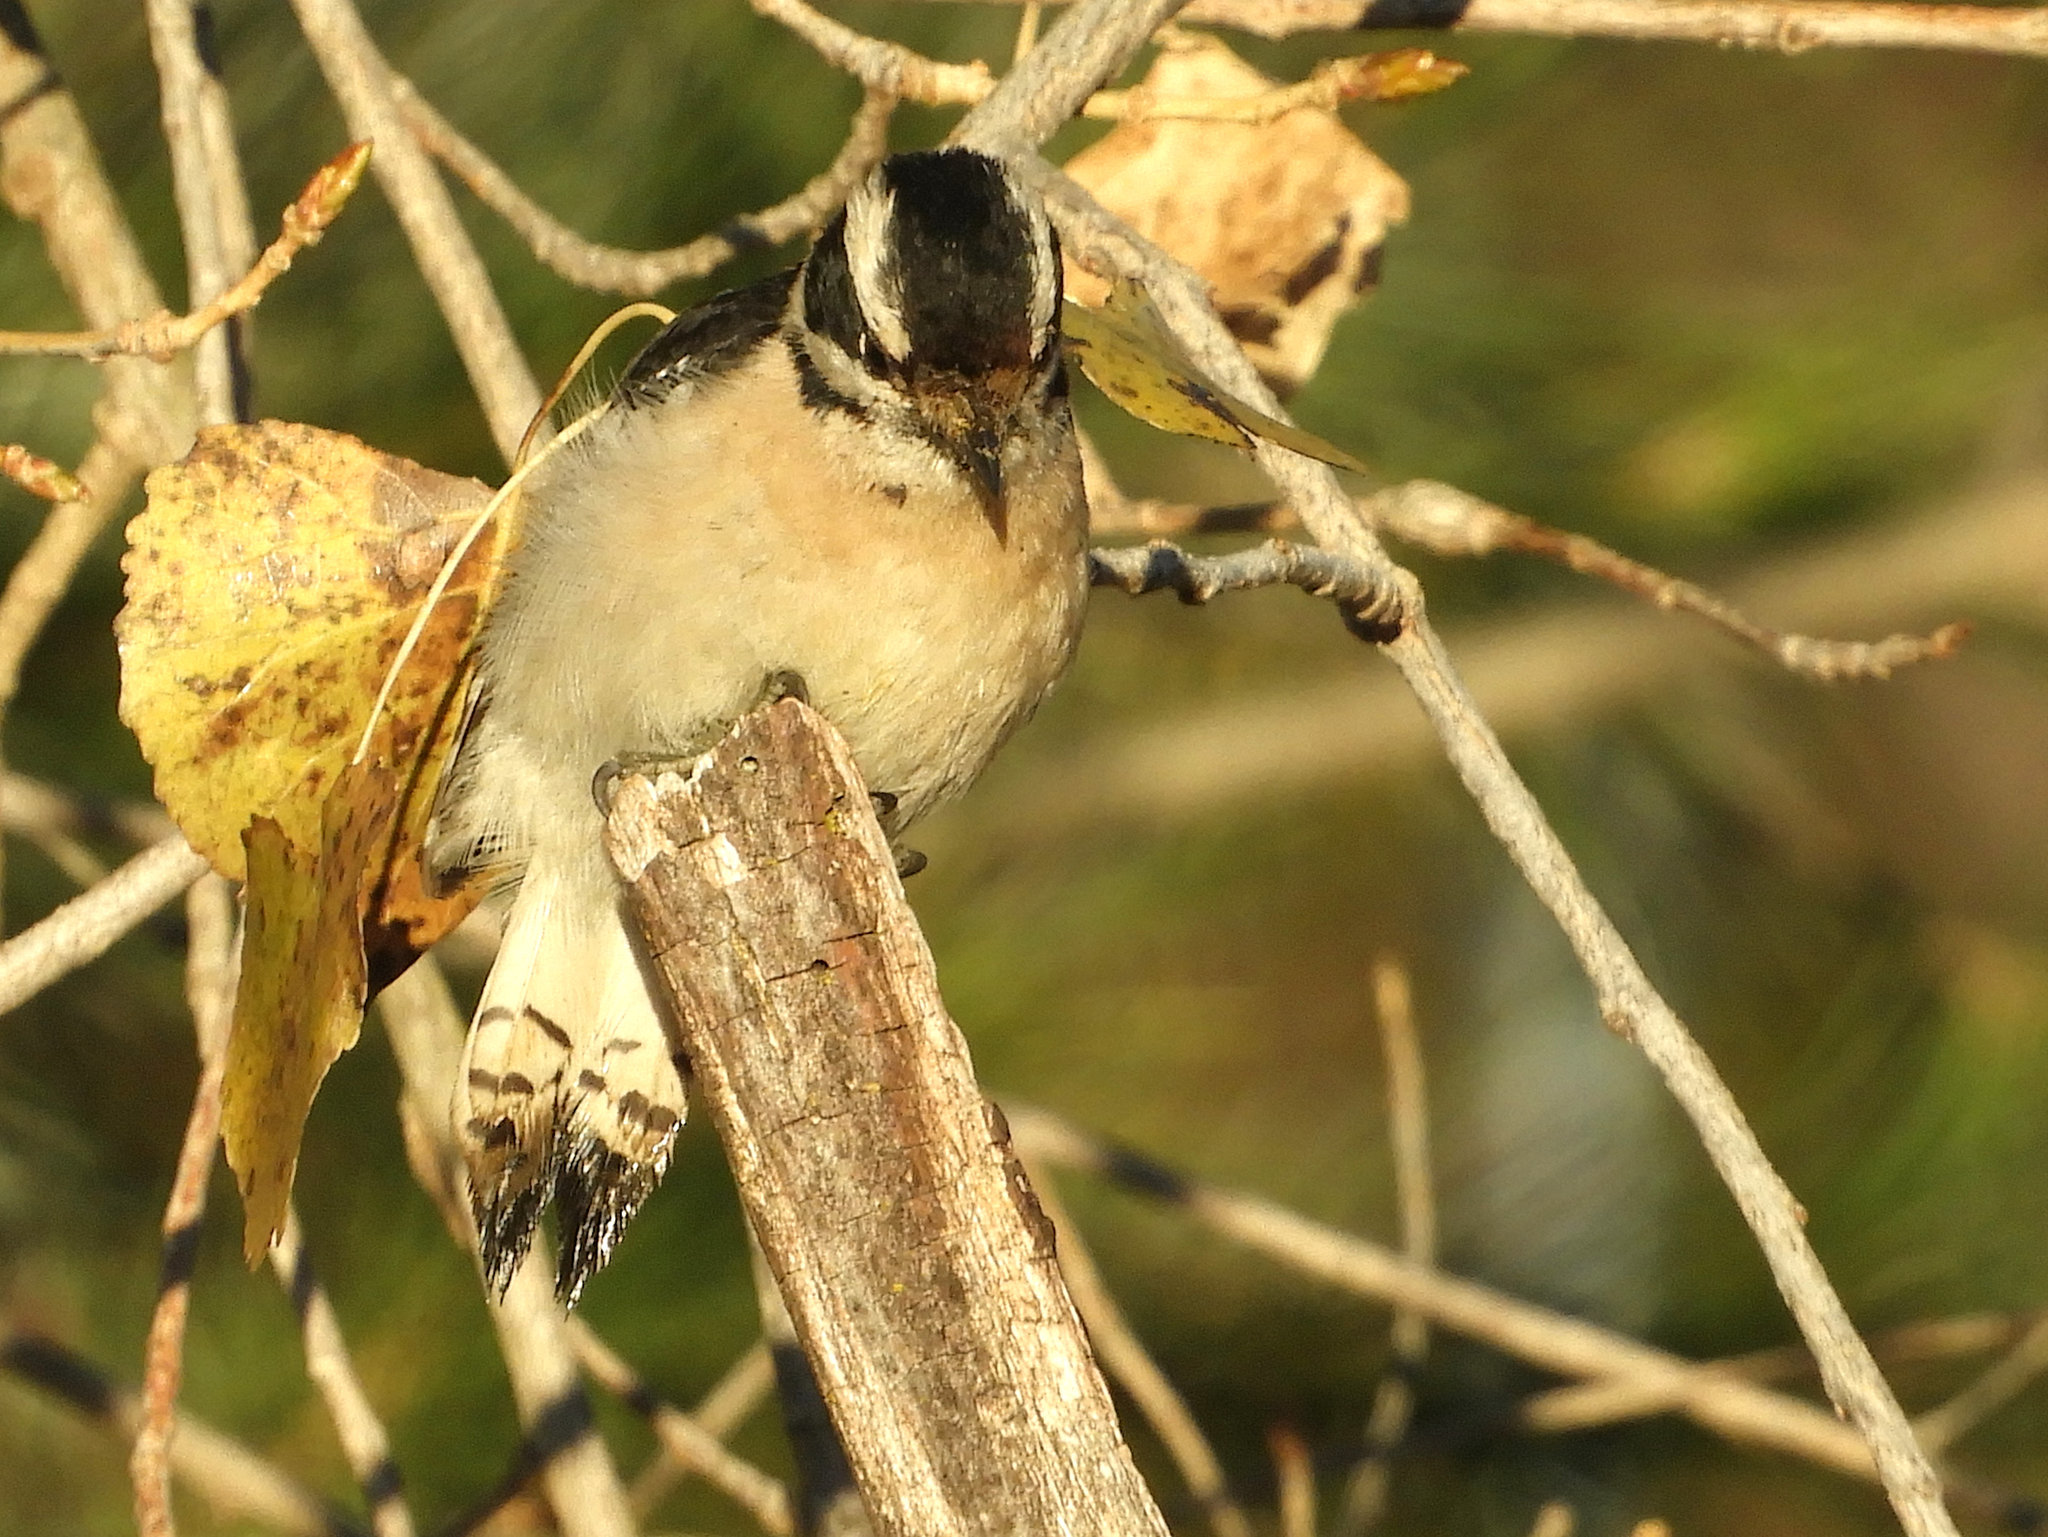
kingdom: Animalia
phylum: Chordata
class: Aves
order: Piciformes
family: Picidae
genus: Dryobates
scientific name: Dryobates pubescens
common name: Downy woodpecker
